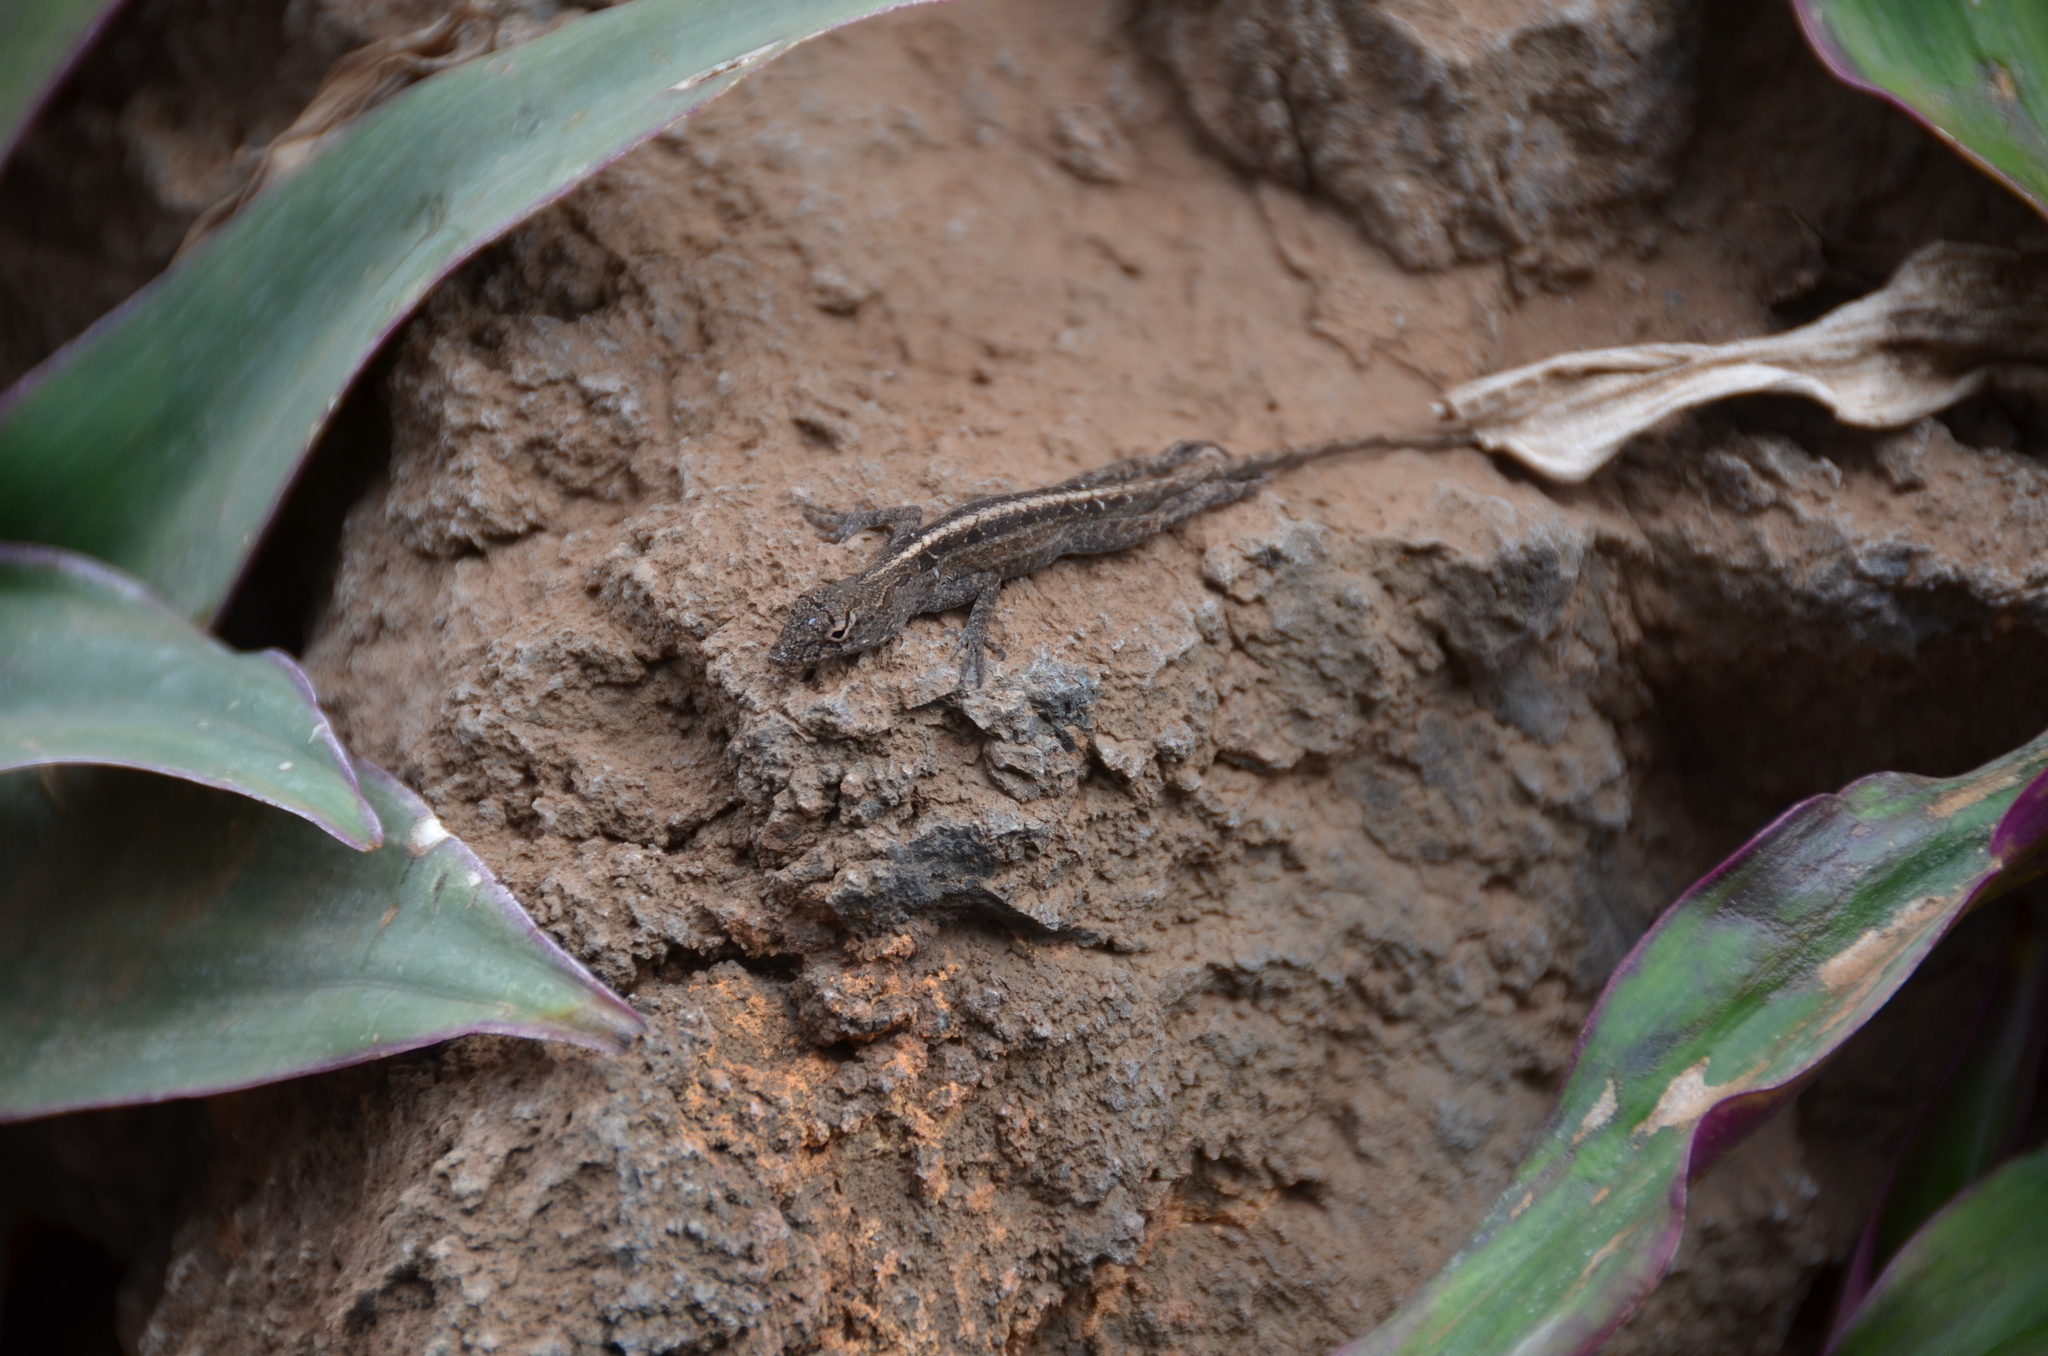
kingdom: Animalia
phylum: Chordata
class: Squamata
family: Dactyloidae
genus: Anolis
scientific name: Anolis sagrei
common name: Brown anole
